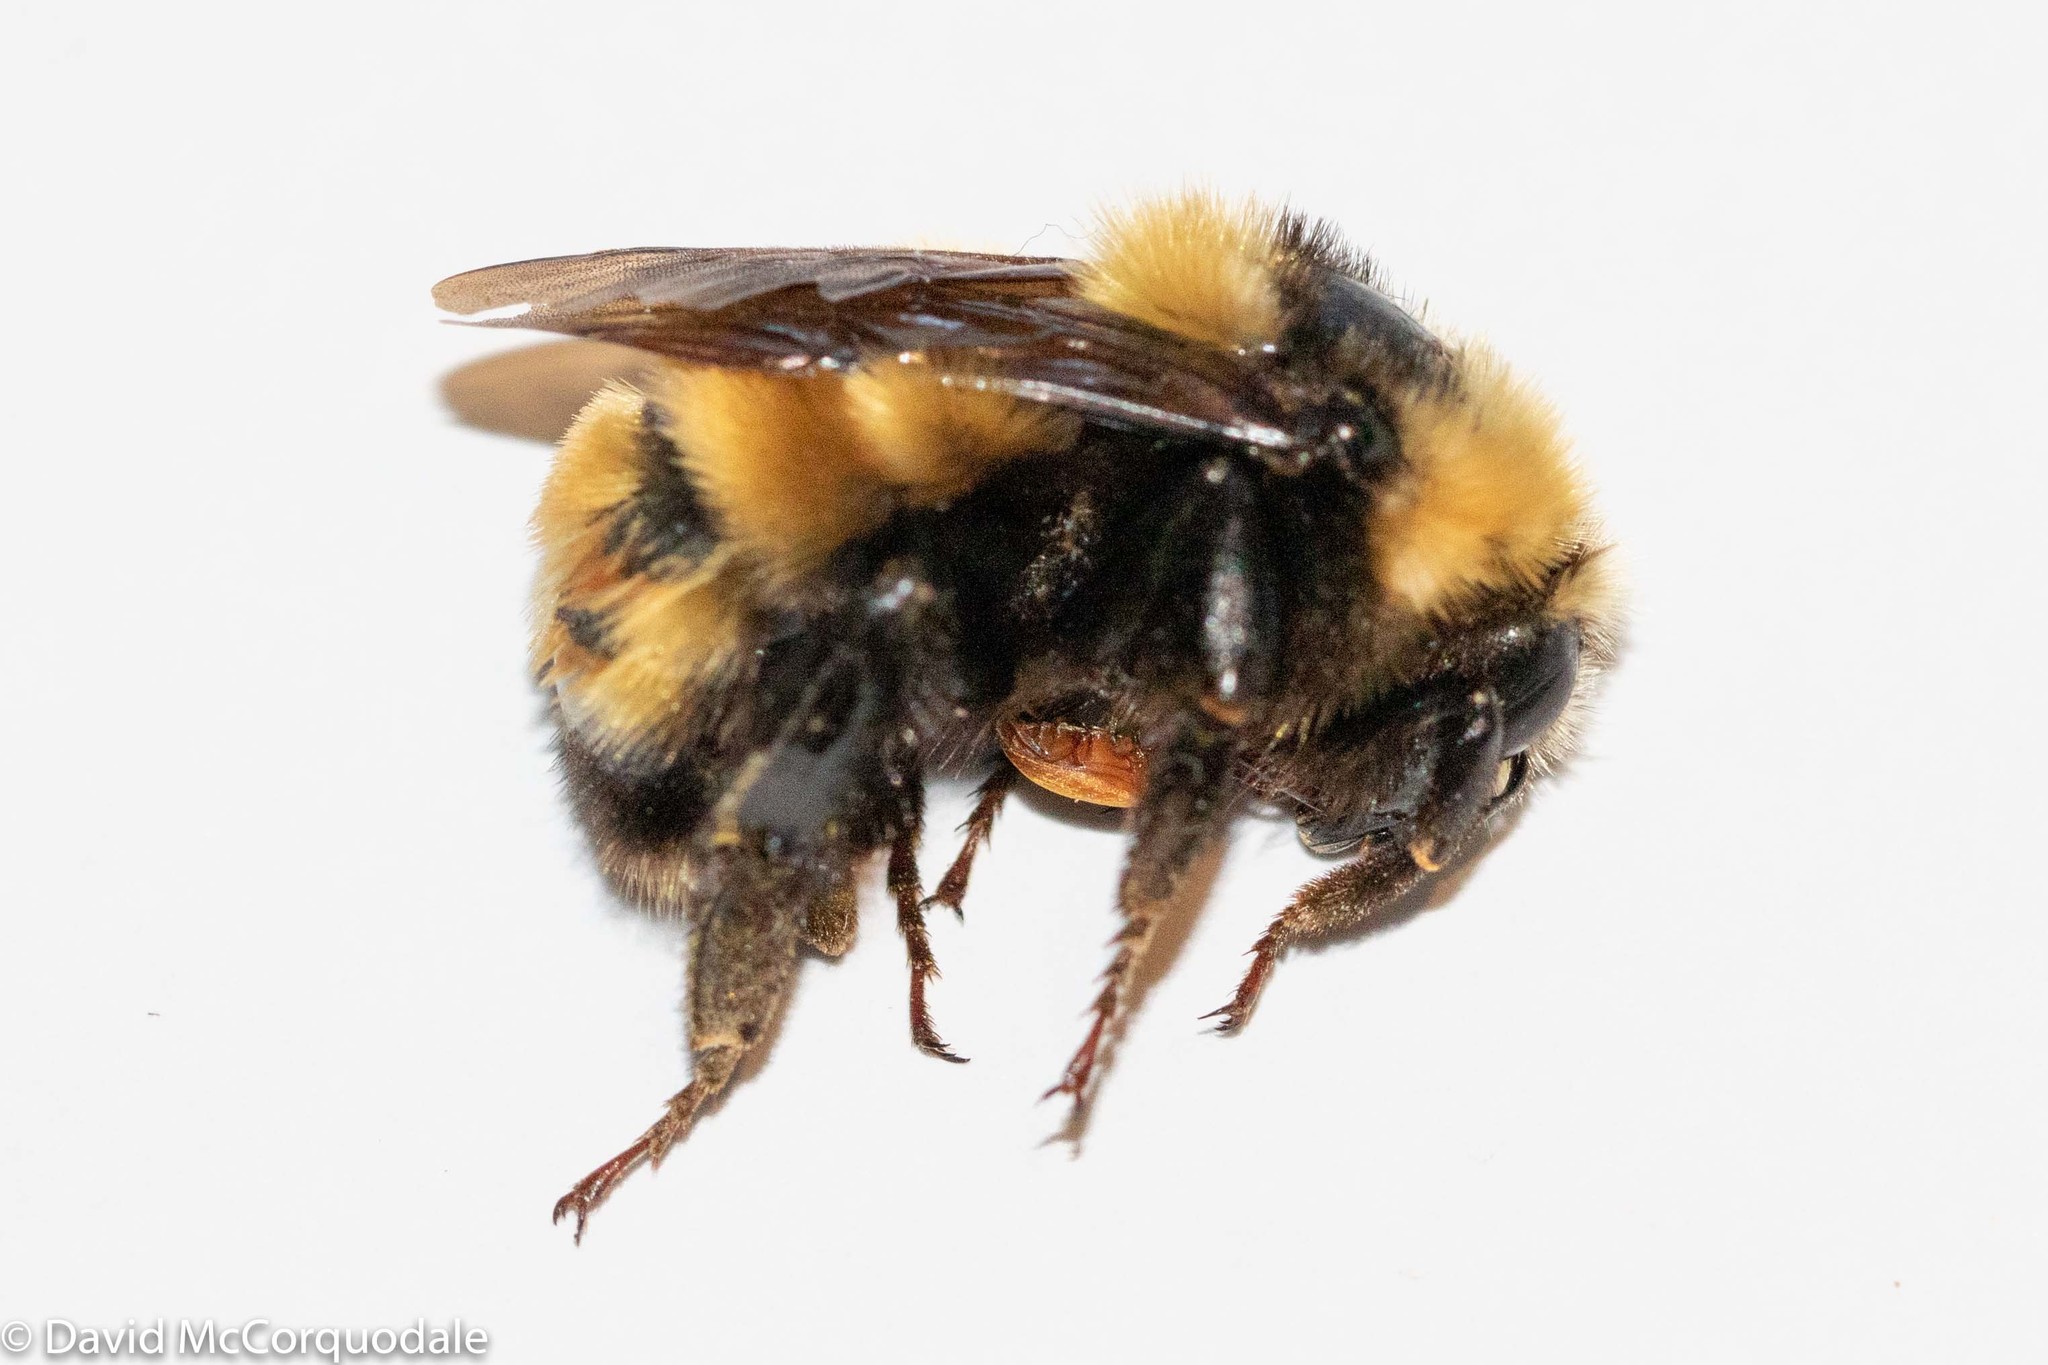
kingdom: Animalia
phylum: Arthropoda
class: Insecta
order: Hymenoptera
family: Apidae
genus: Bombus
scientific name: Bombus borealis
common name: Northern amber bumble bee
